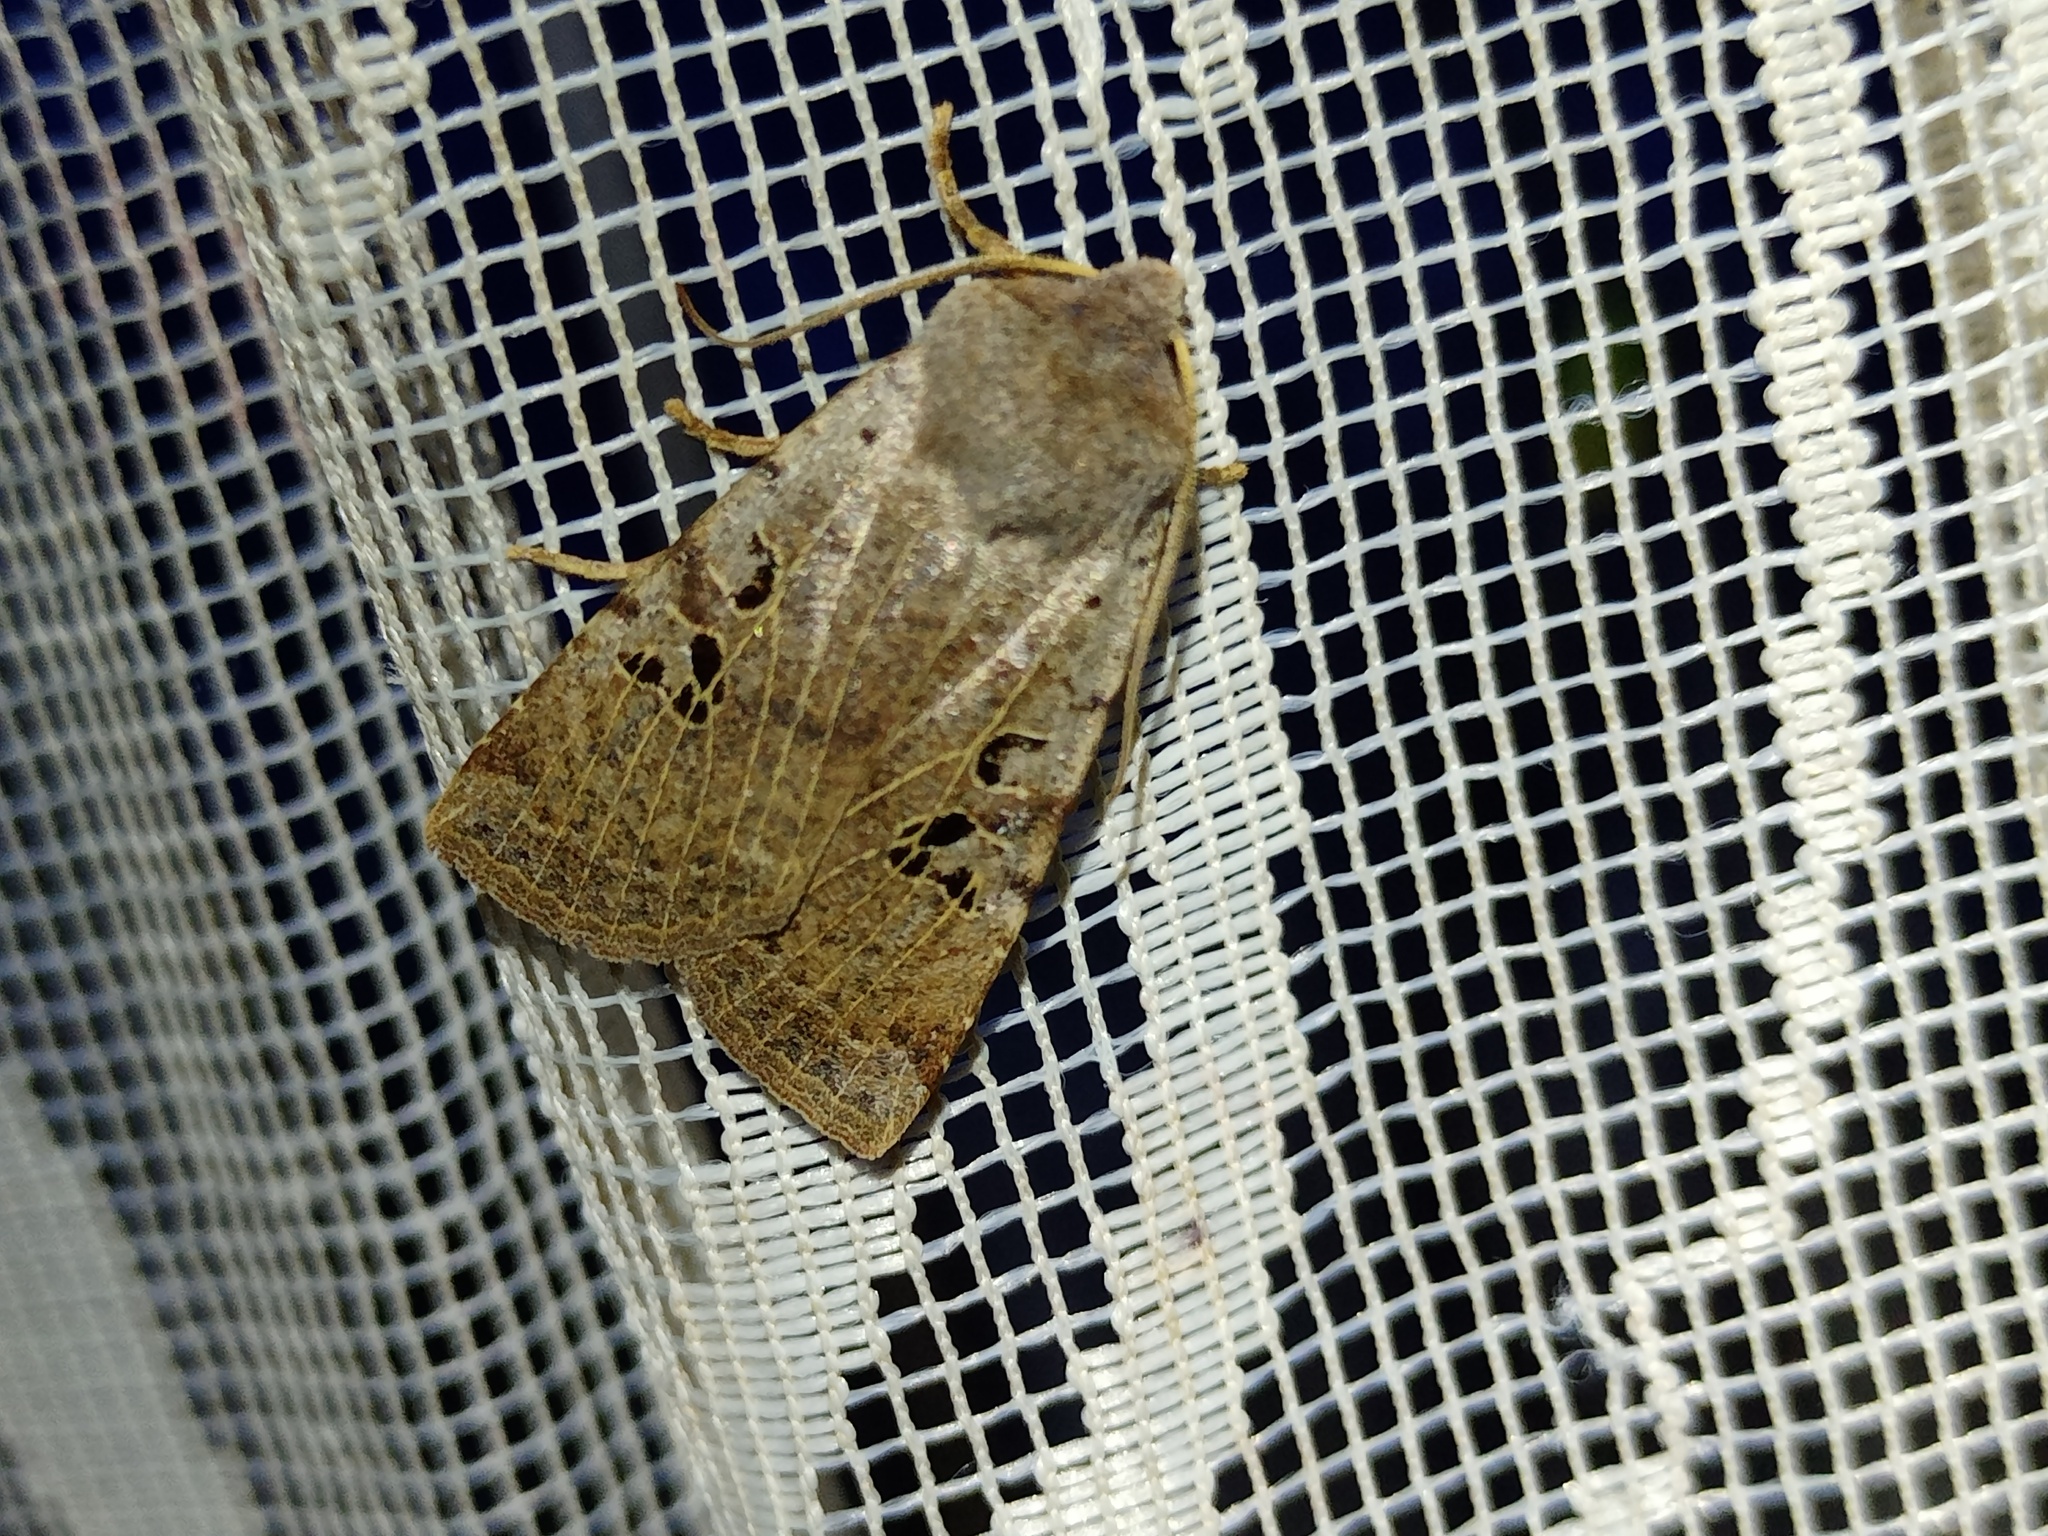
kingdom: Animalia
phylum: Arthropoda
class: Insecta
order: Lepidoptera
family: Noctuidae
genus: Conistra
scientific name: Conistra rubiginosa
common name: Black-spotted chestnut
